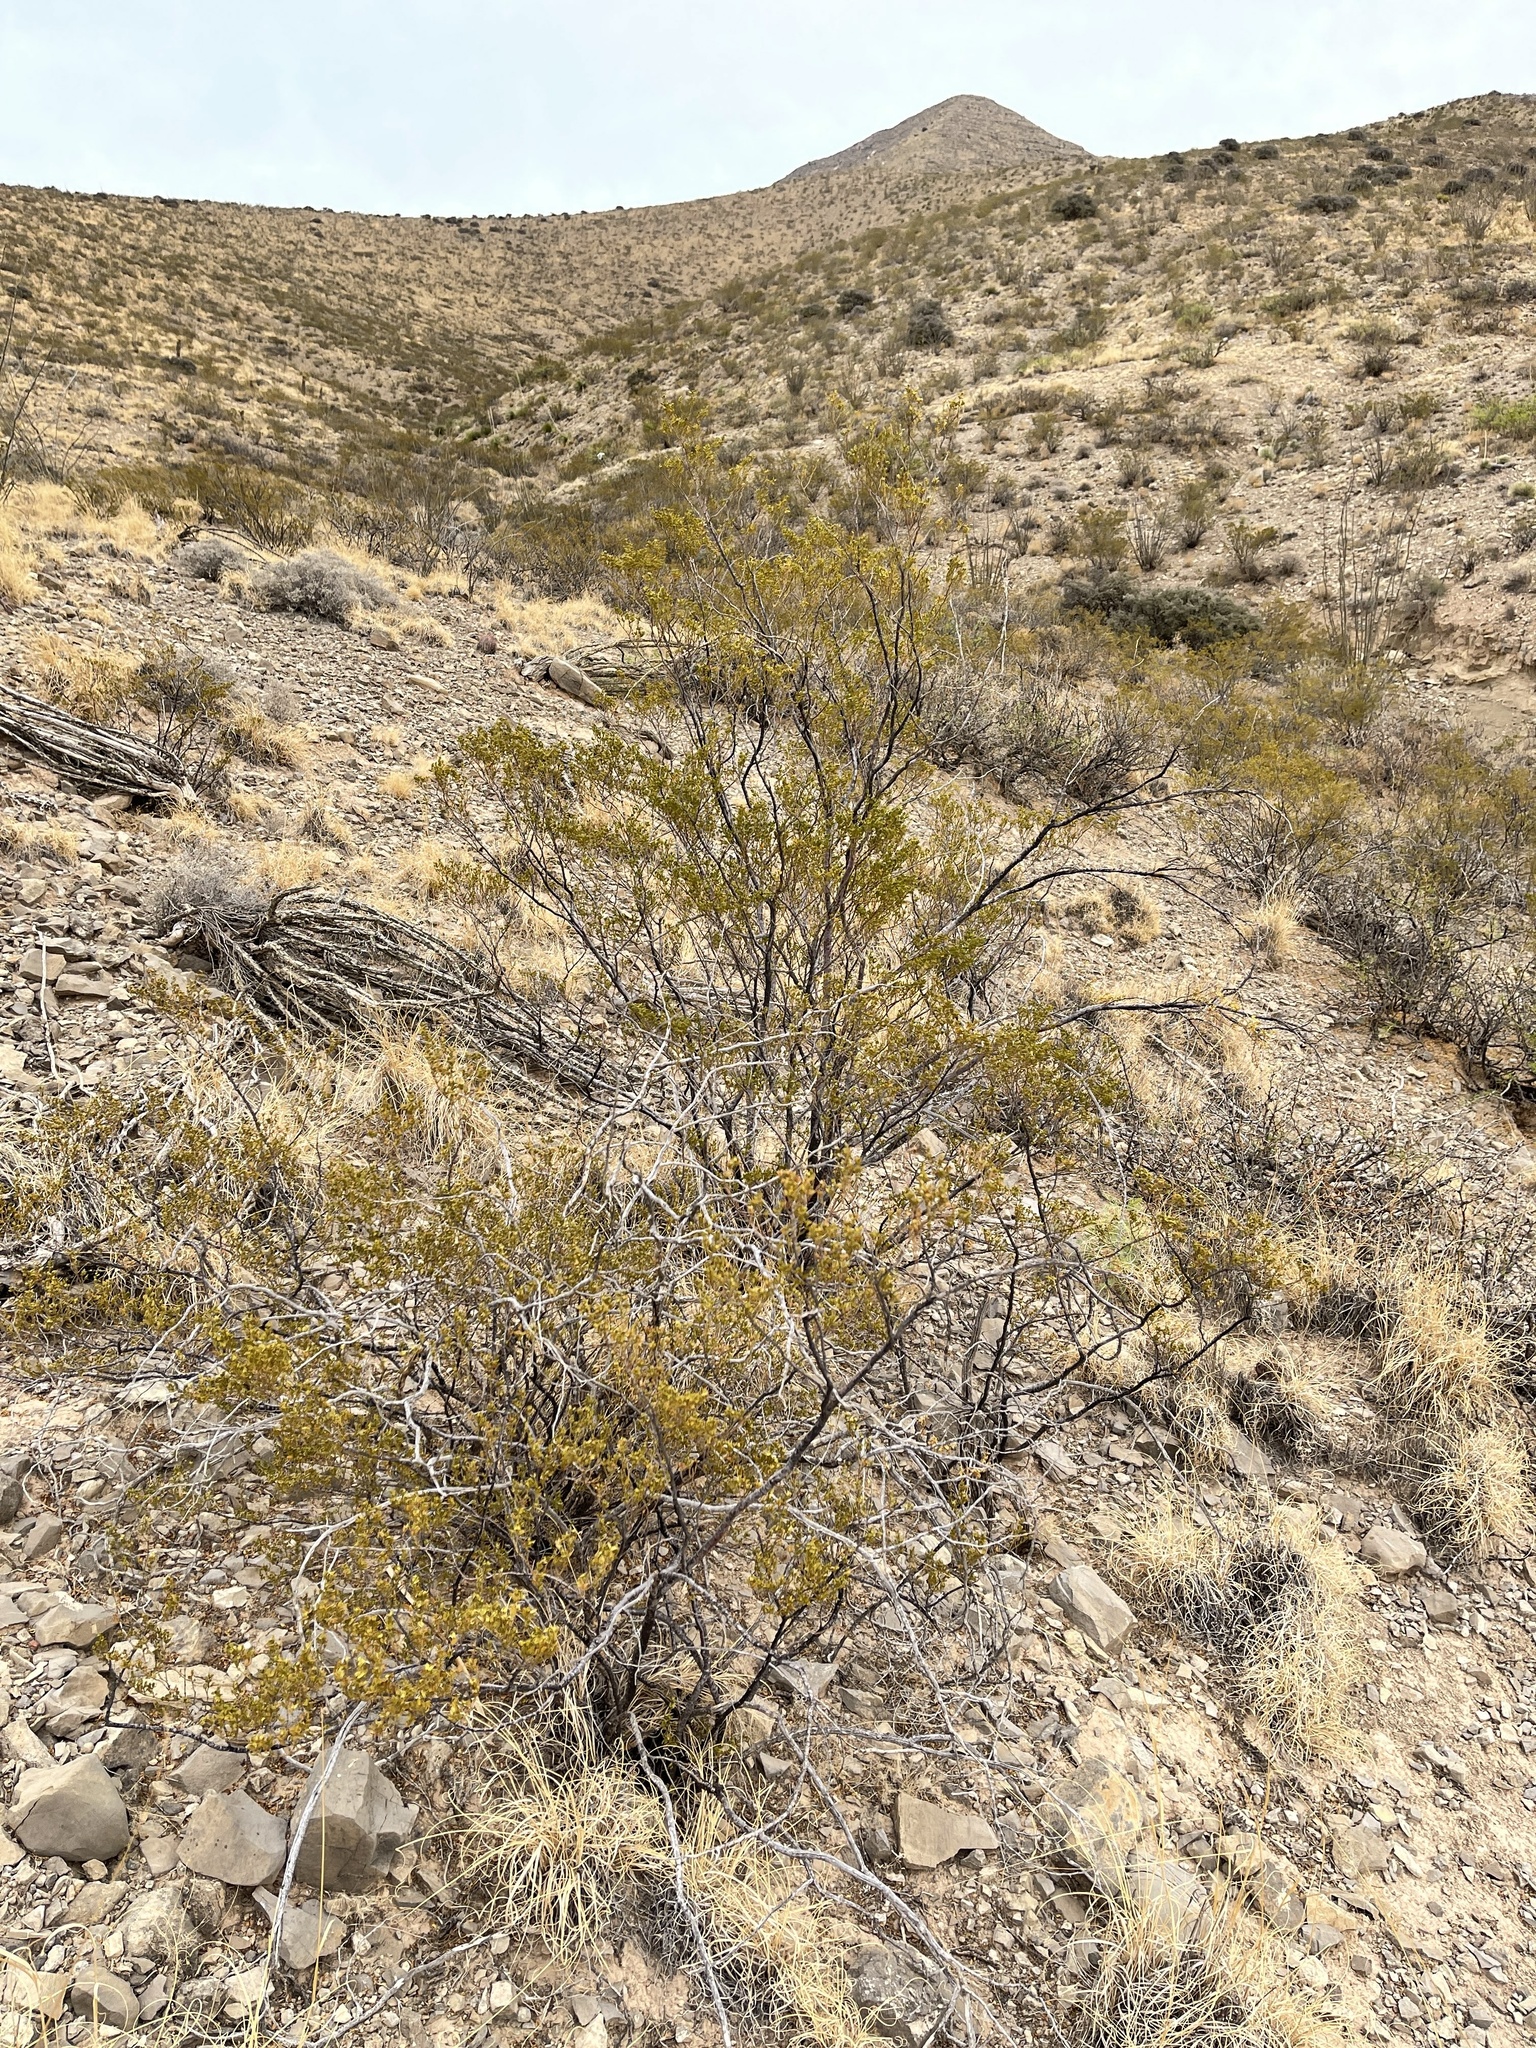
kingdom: Plantae
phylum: Tracheophyta
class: Magnoliopsida
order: Zygophyllales
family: Zygophyllaceae
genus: Larrea
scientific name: Larrea tridentata
